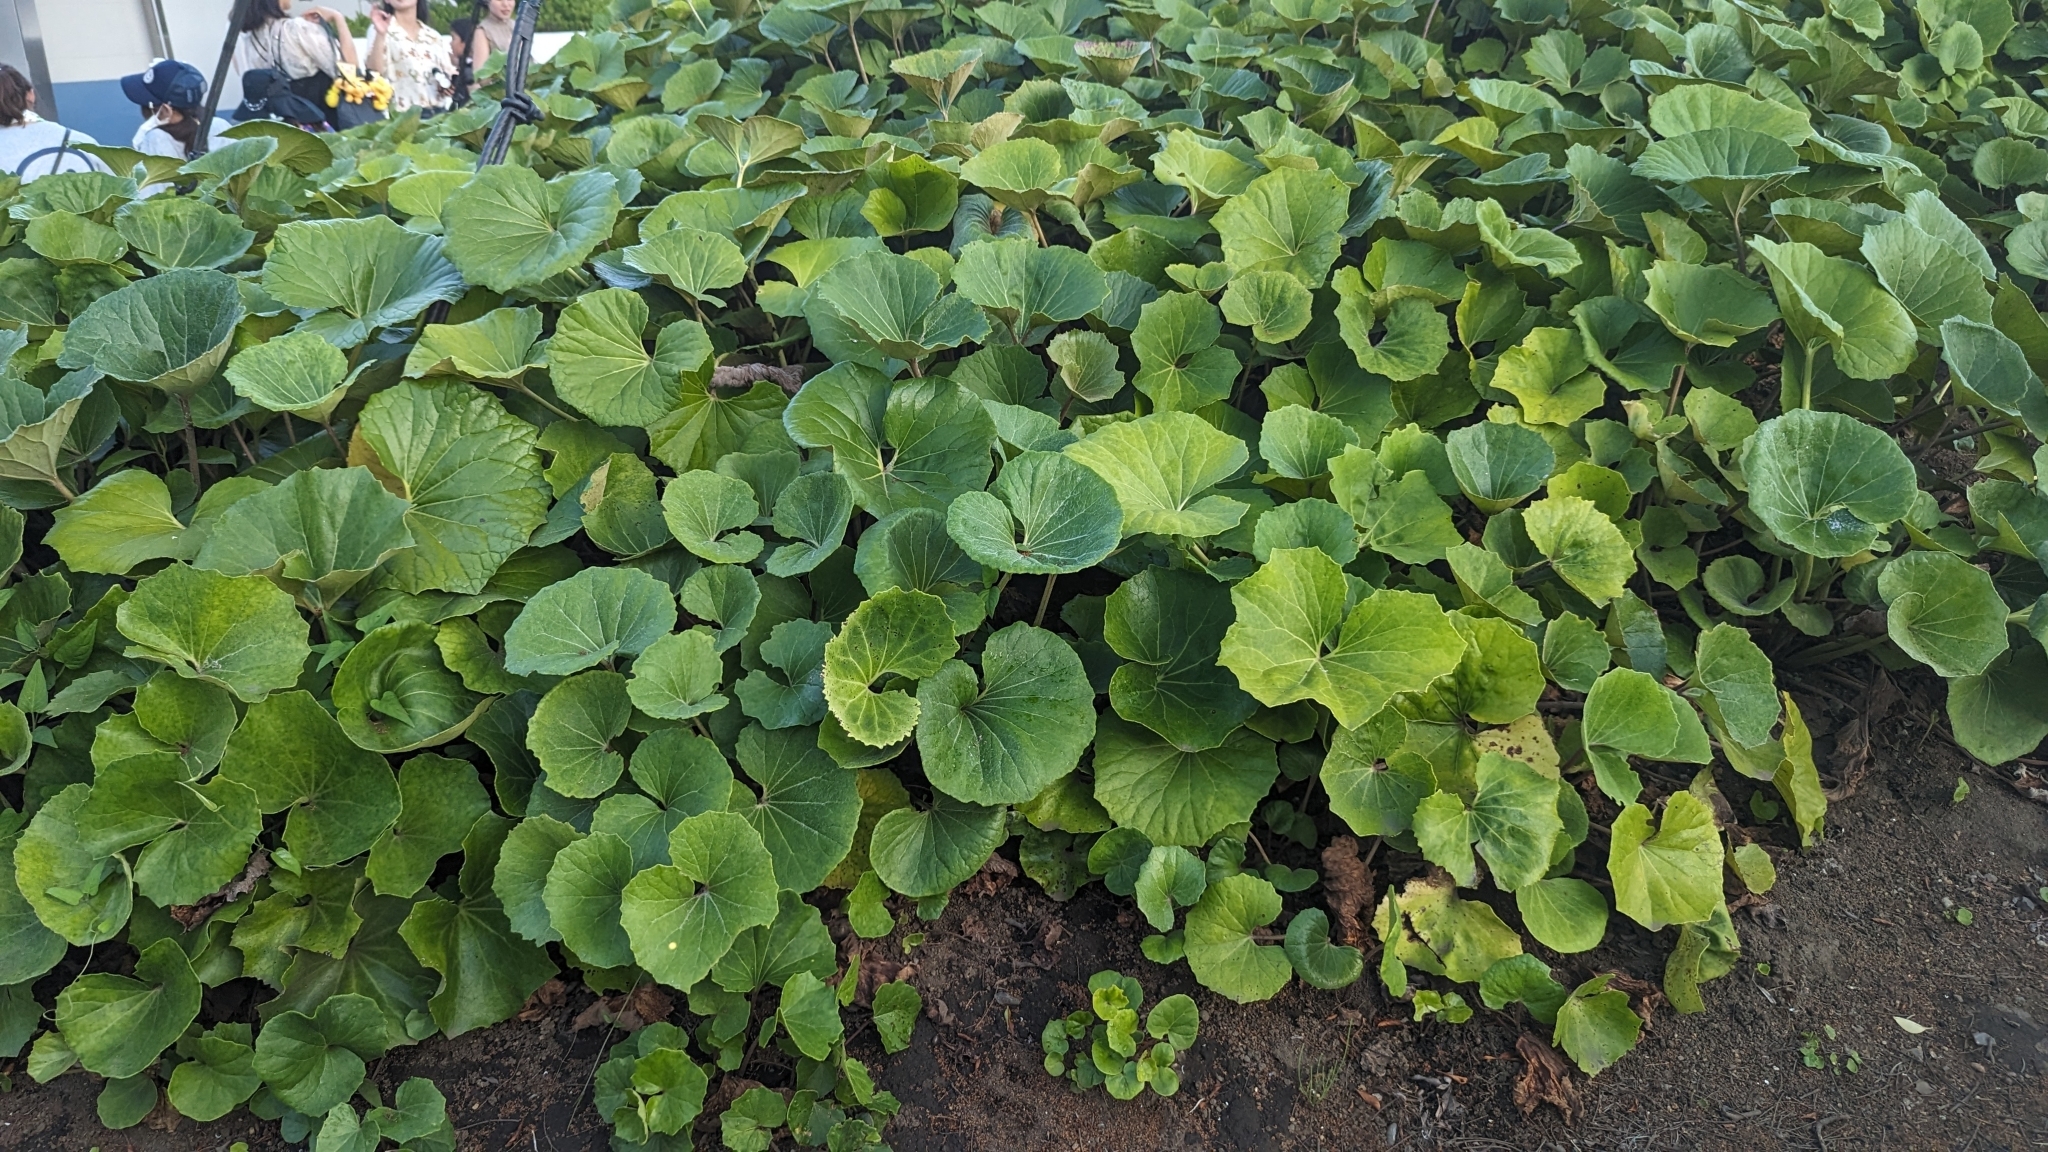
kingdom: Plantae
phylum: Tracheophyta
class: Magnoliopsida
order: Asterales
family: Asteraceae
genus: Petasites
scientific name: Petasites japonicus
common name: Giant butterbur
